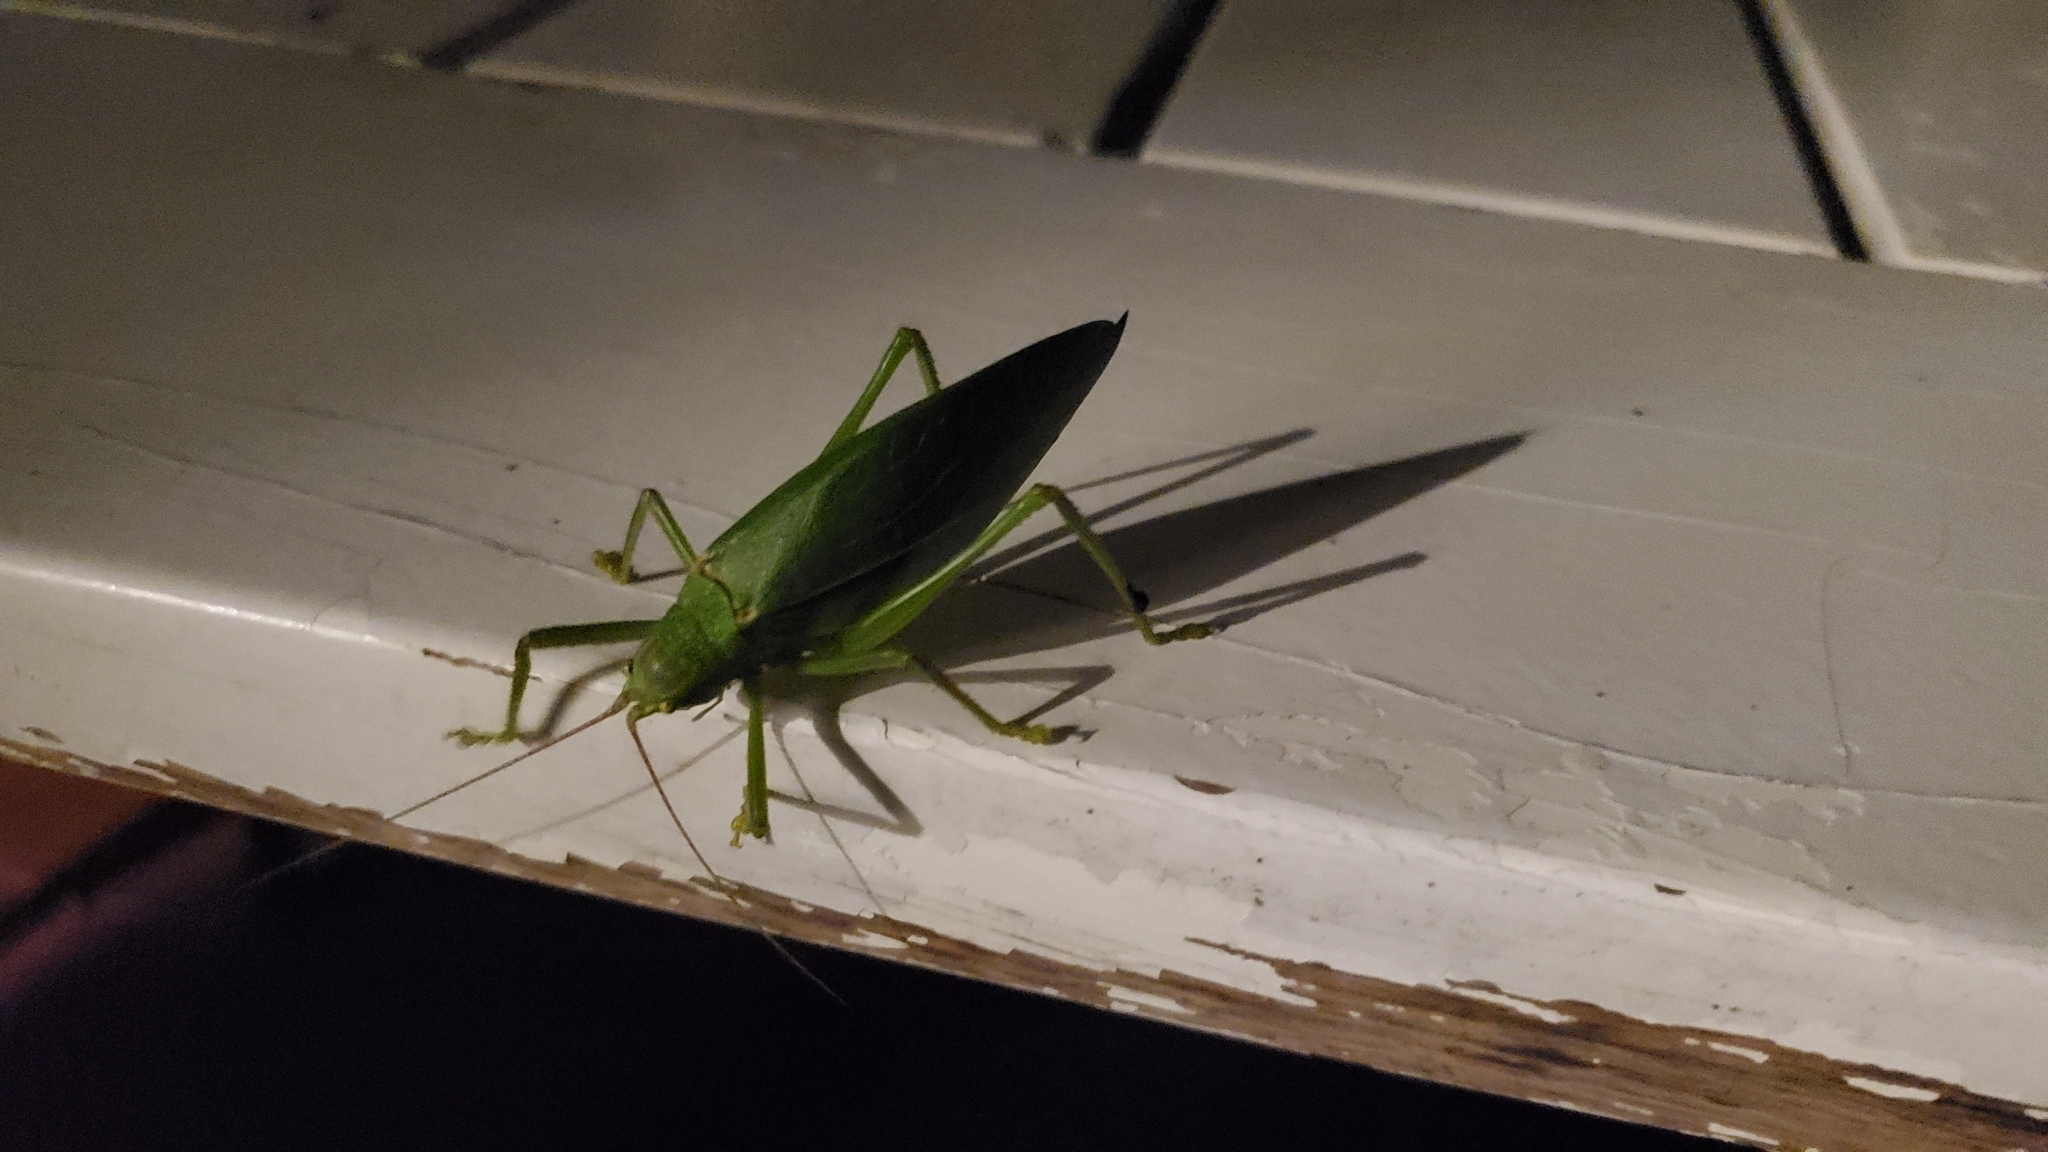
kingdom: Animalia
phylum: Arthropoda
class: Insecta
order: Orthoptera
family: Tettigoniidae
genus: Pterophylla
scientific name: Pterophylla camellifolia
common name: Common true katydid
